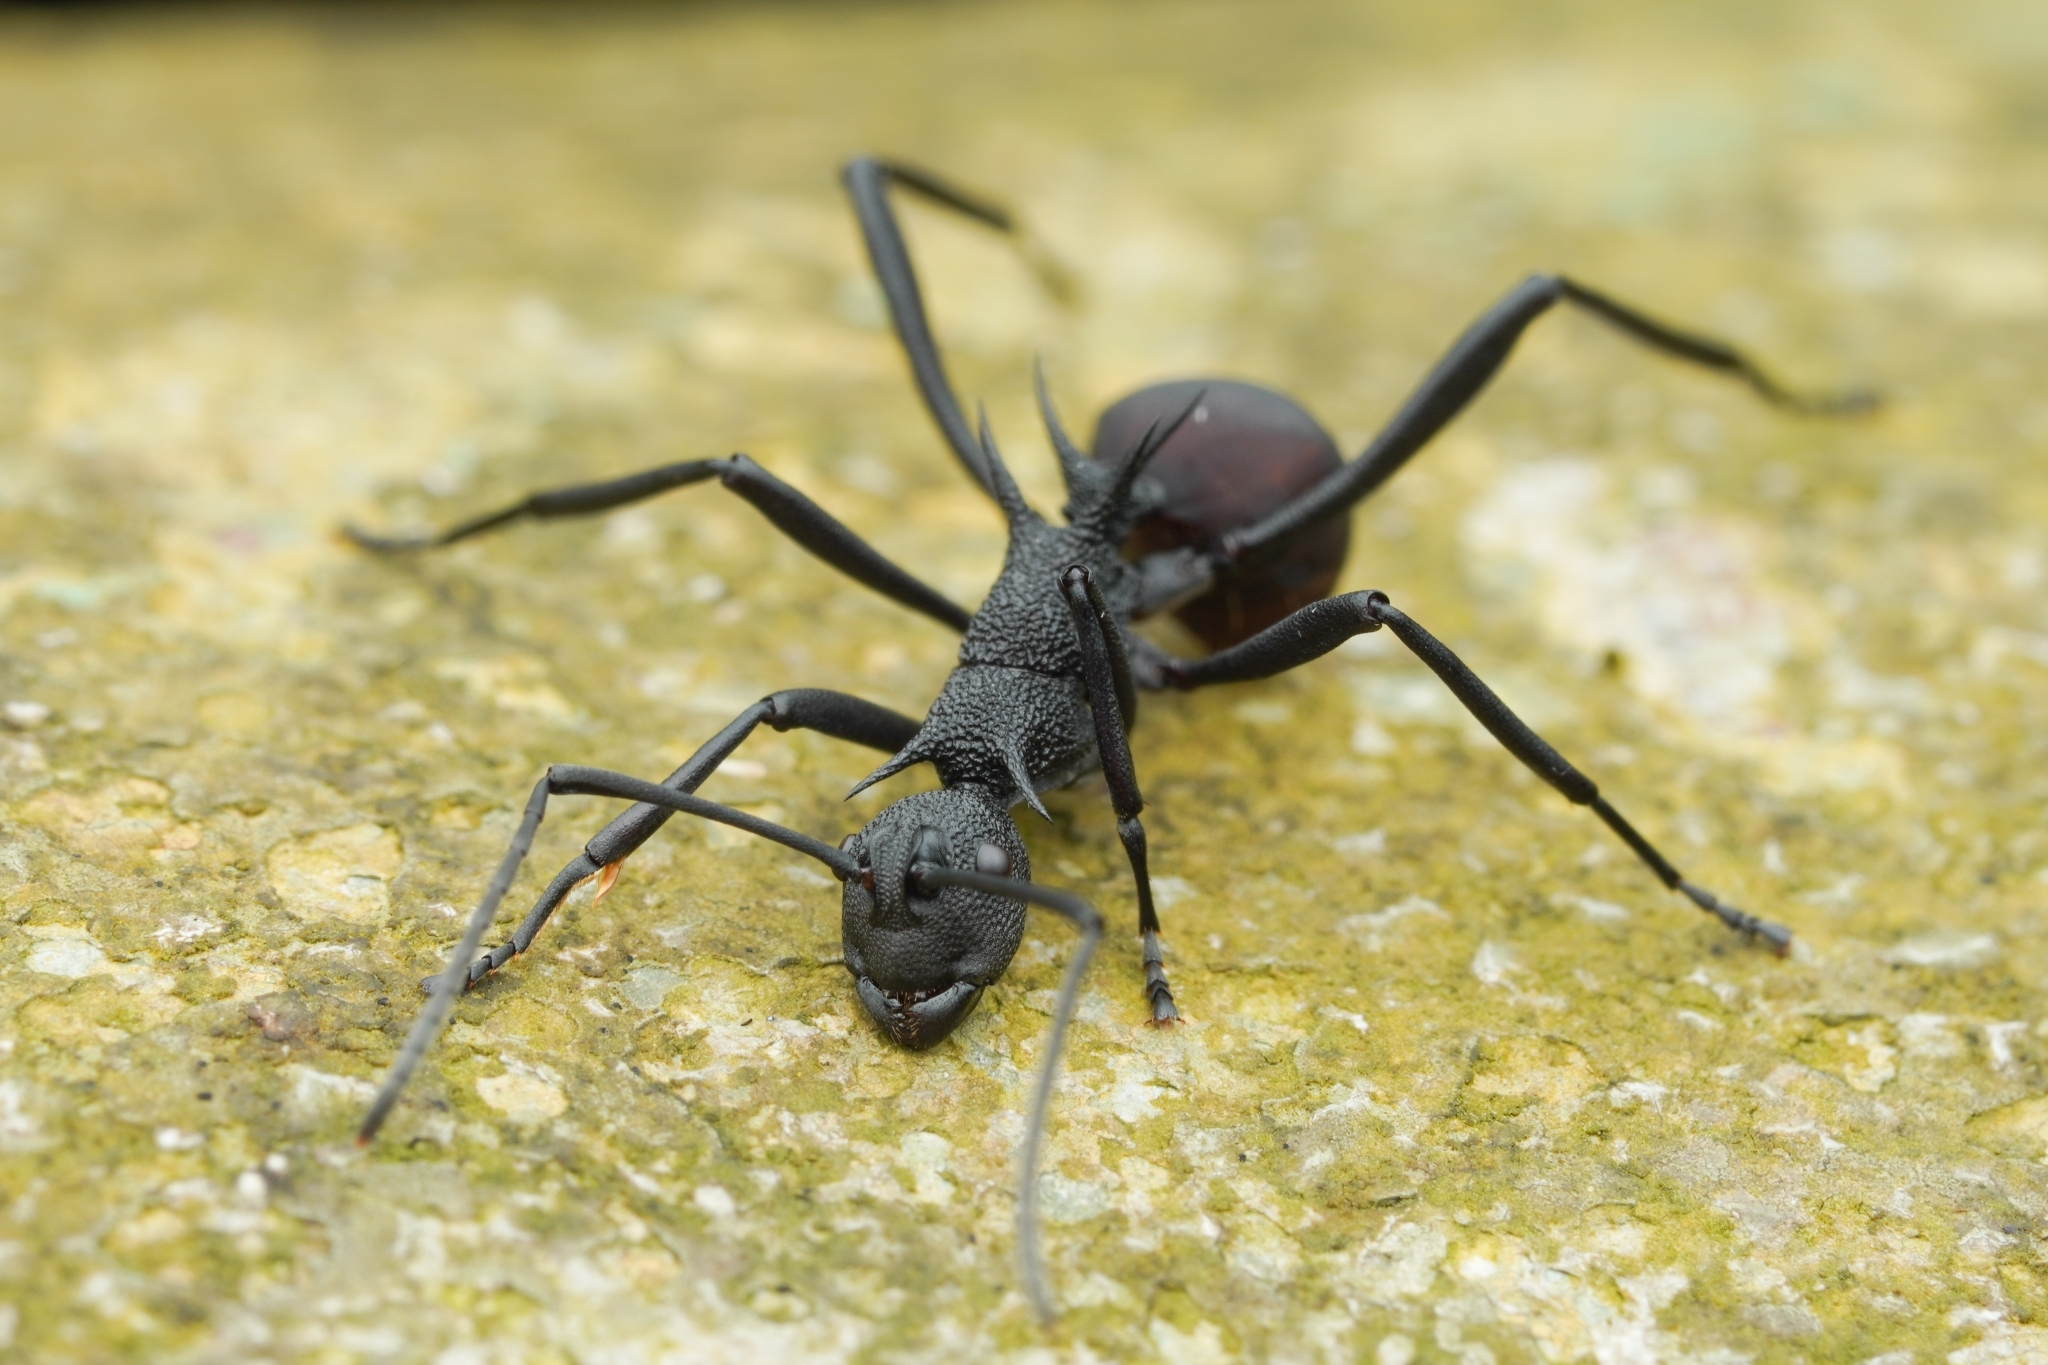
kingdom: Animalia
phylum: Arthropoda
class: Insecta
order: Hymenoptera
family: Formicidae
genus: Polyrhachis
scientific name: Polyrhachis armata
